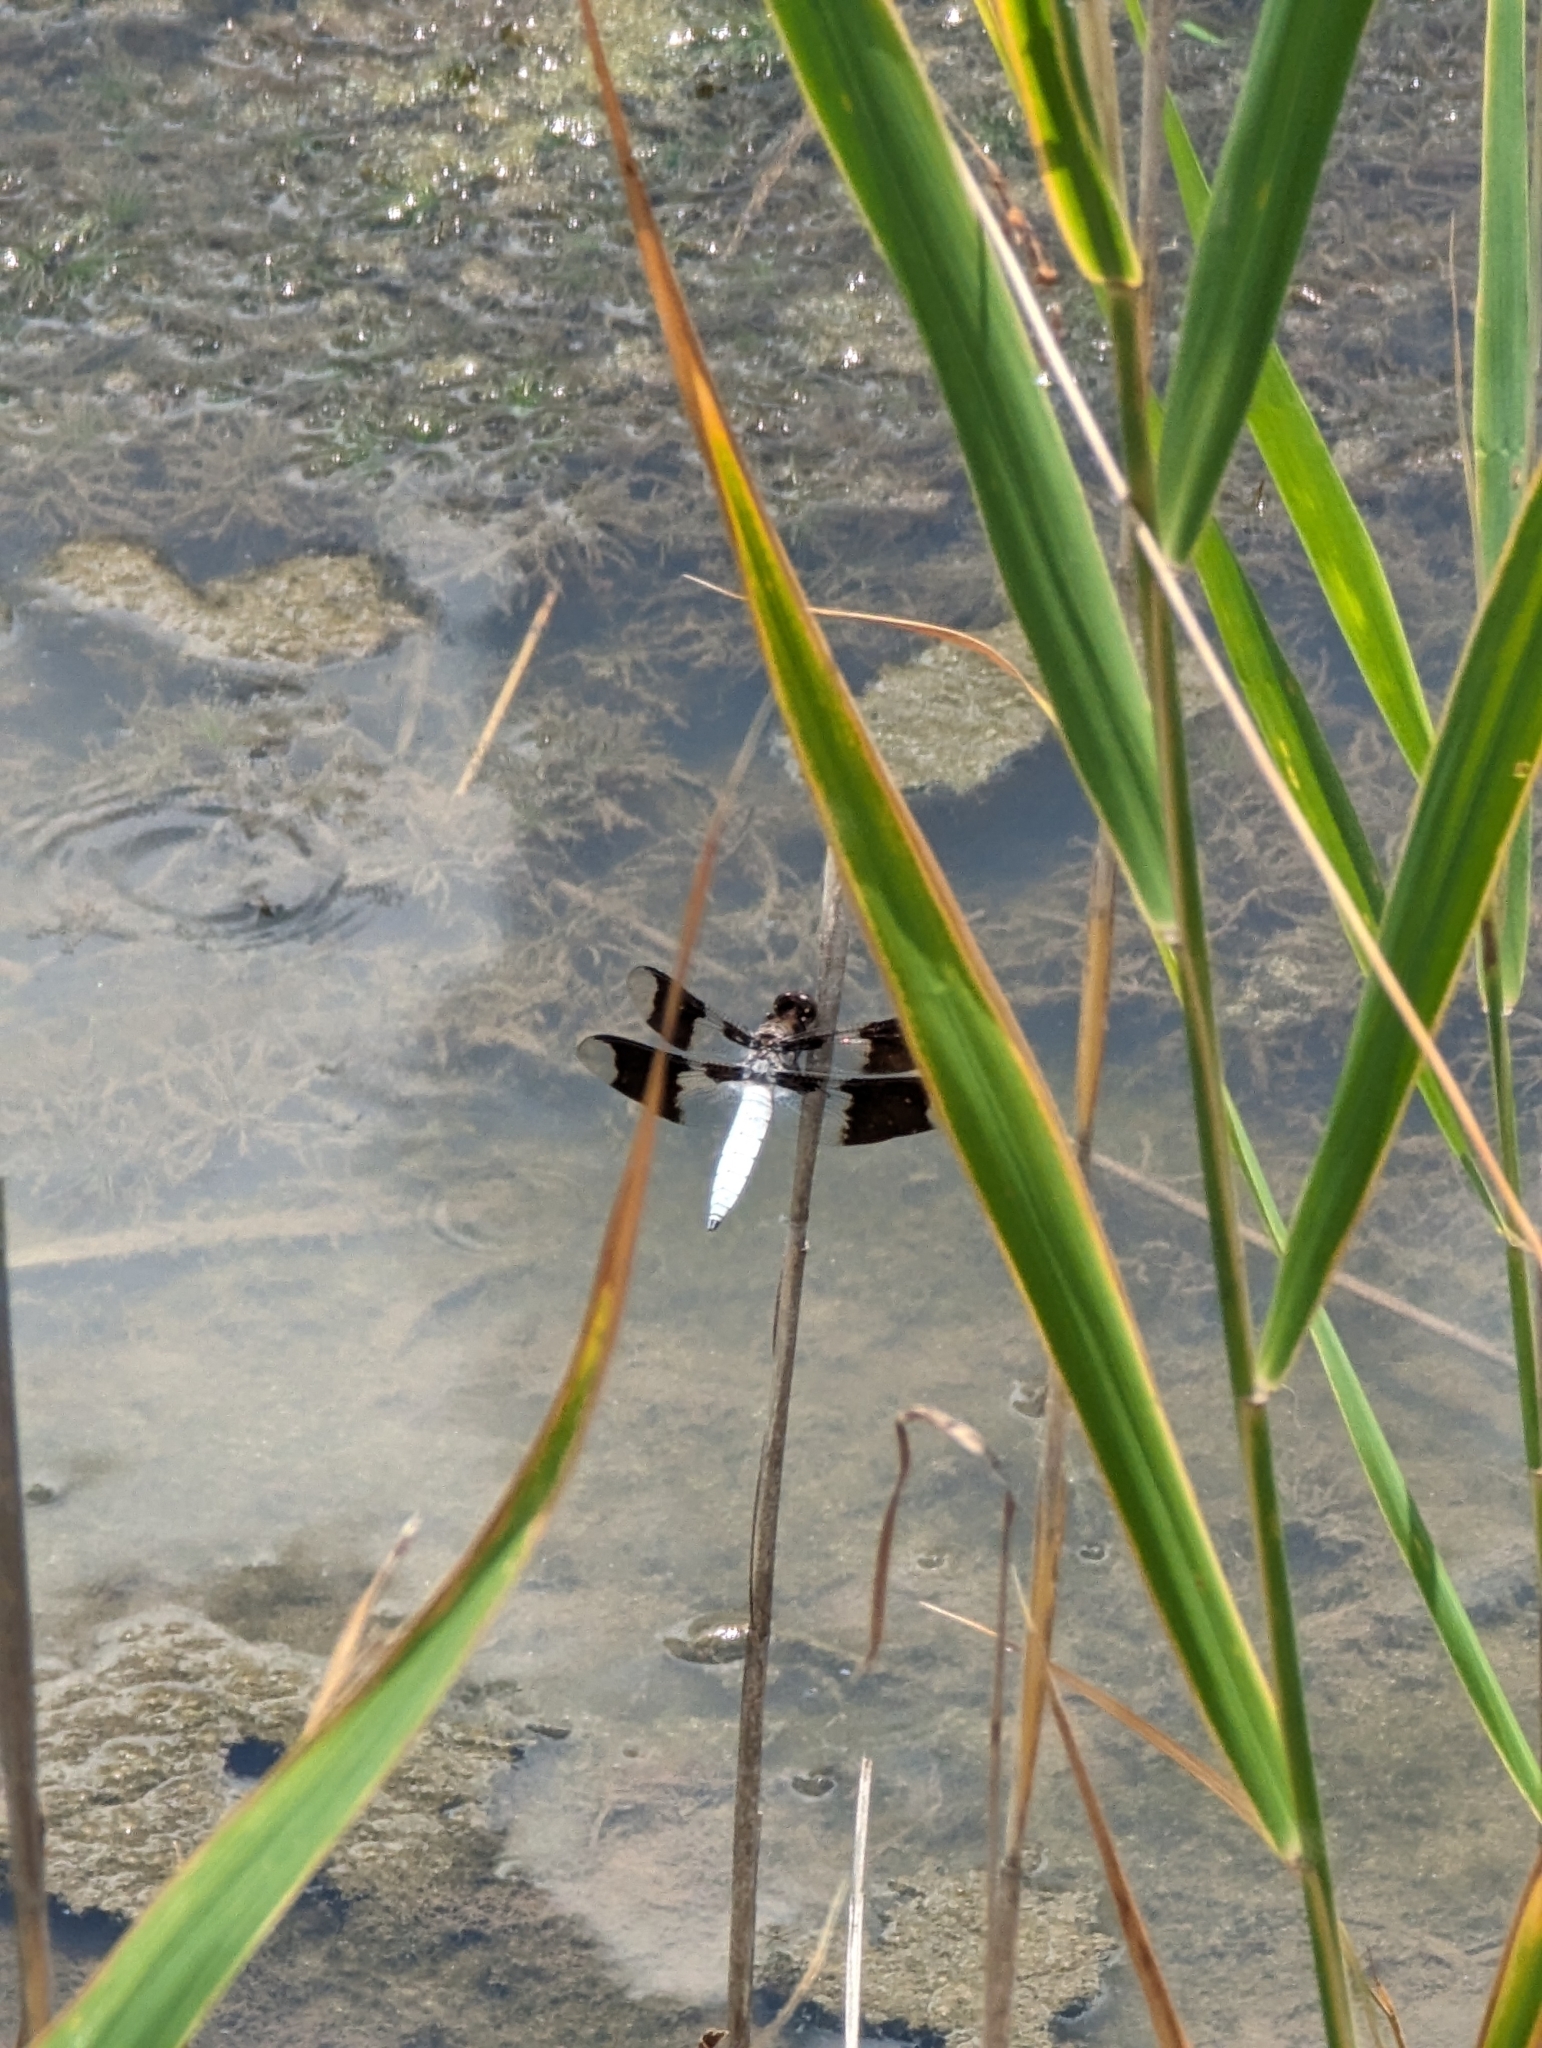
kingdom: Animalia
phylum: Arthropoda
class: Insecta
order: Odonata
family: Libellulidae
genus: Plathemis
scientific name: Plathemis lydia
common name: Common whitetail
